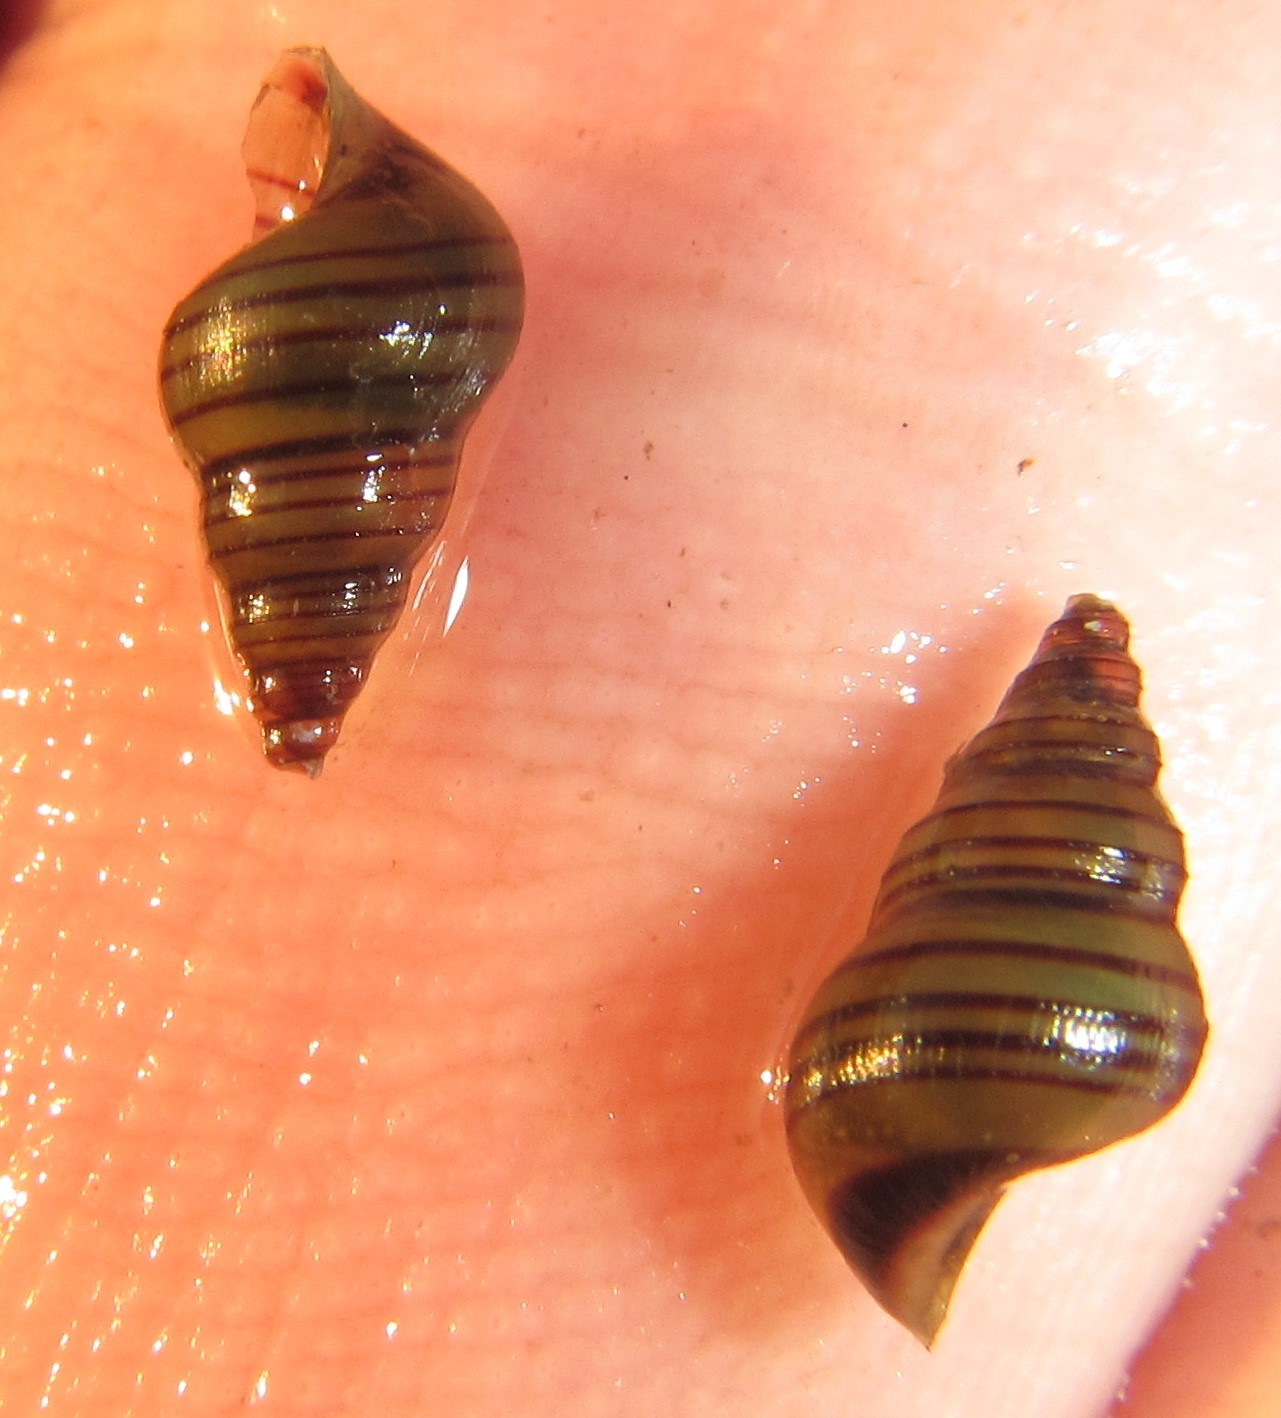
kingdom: Animalia
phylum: Mollusca
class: Gastropoda
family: Paludomidae
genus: Cleopatra
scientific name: Cleopatra elata
